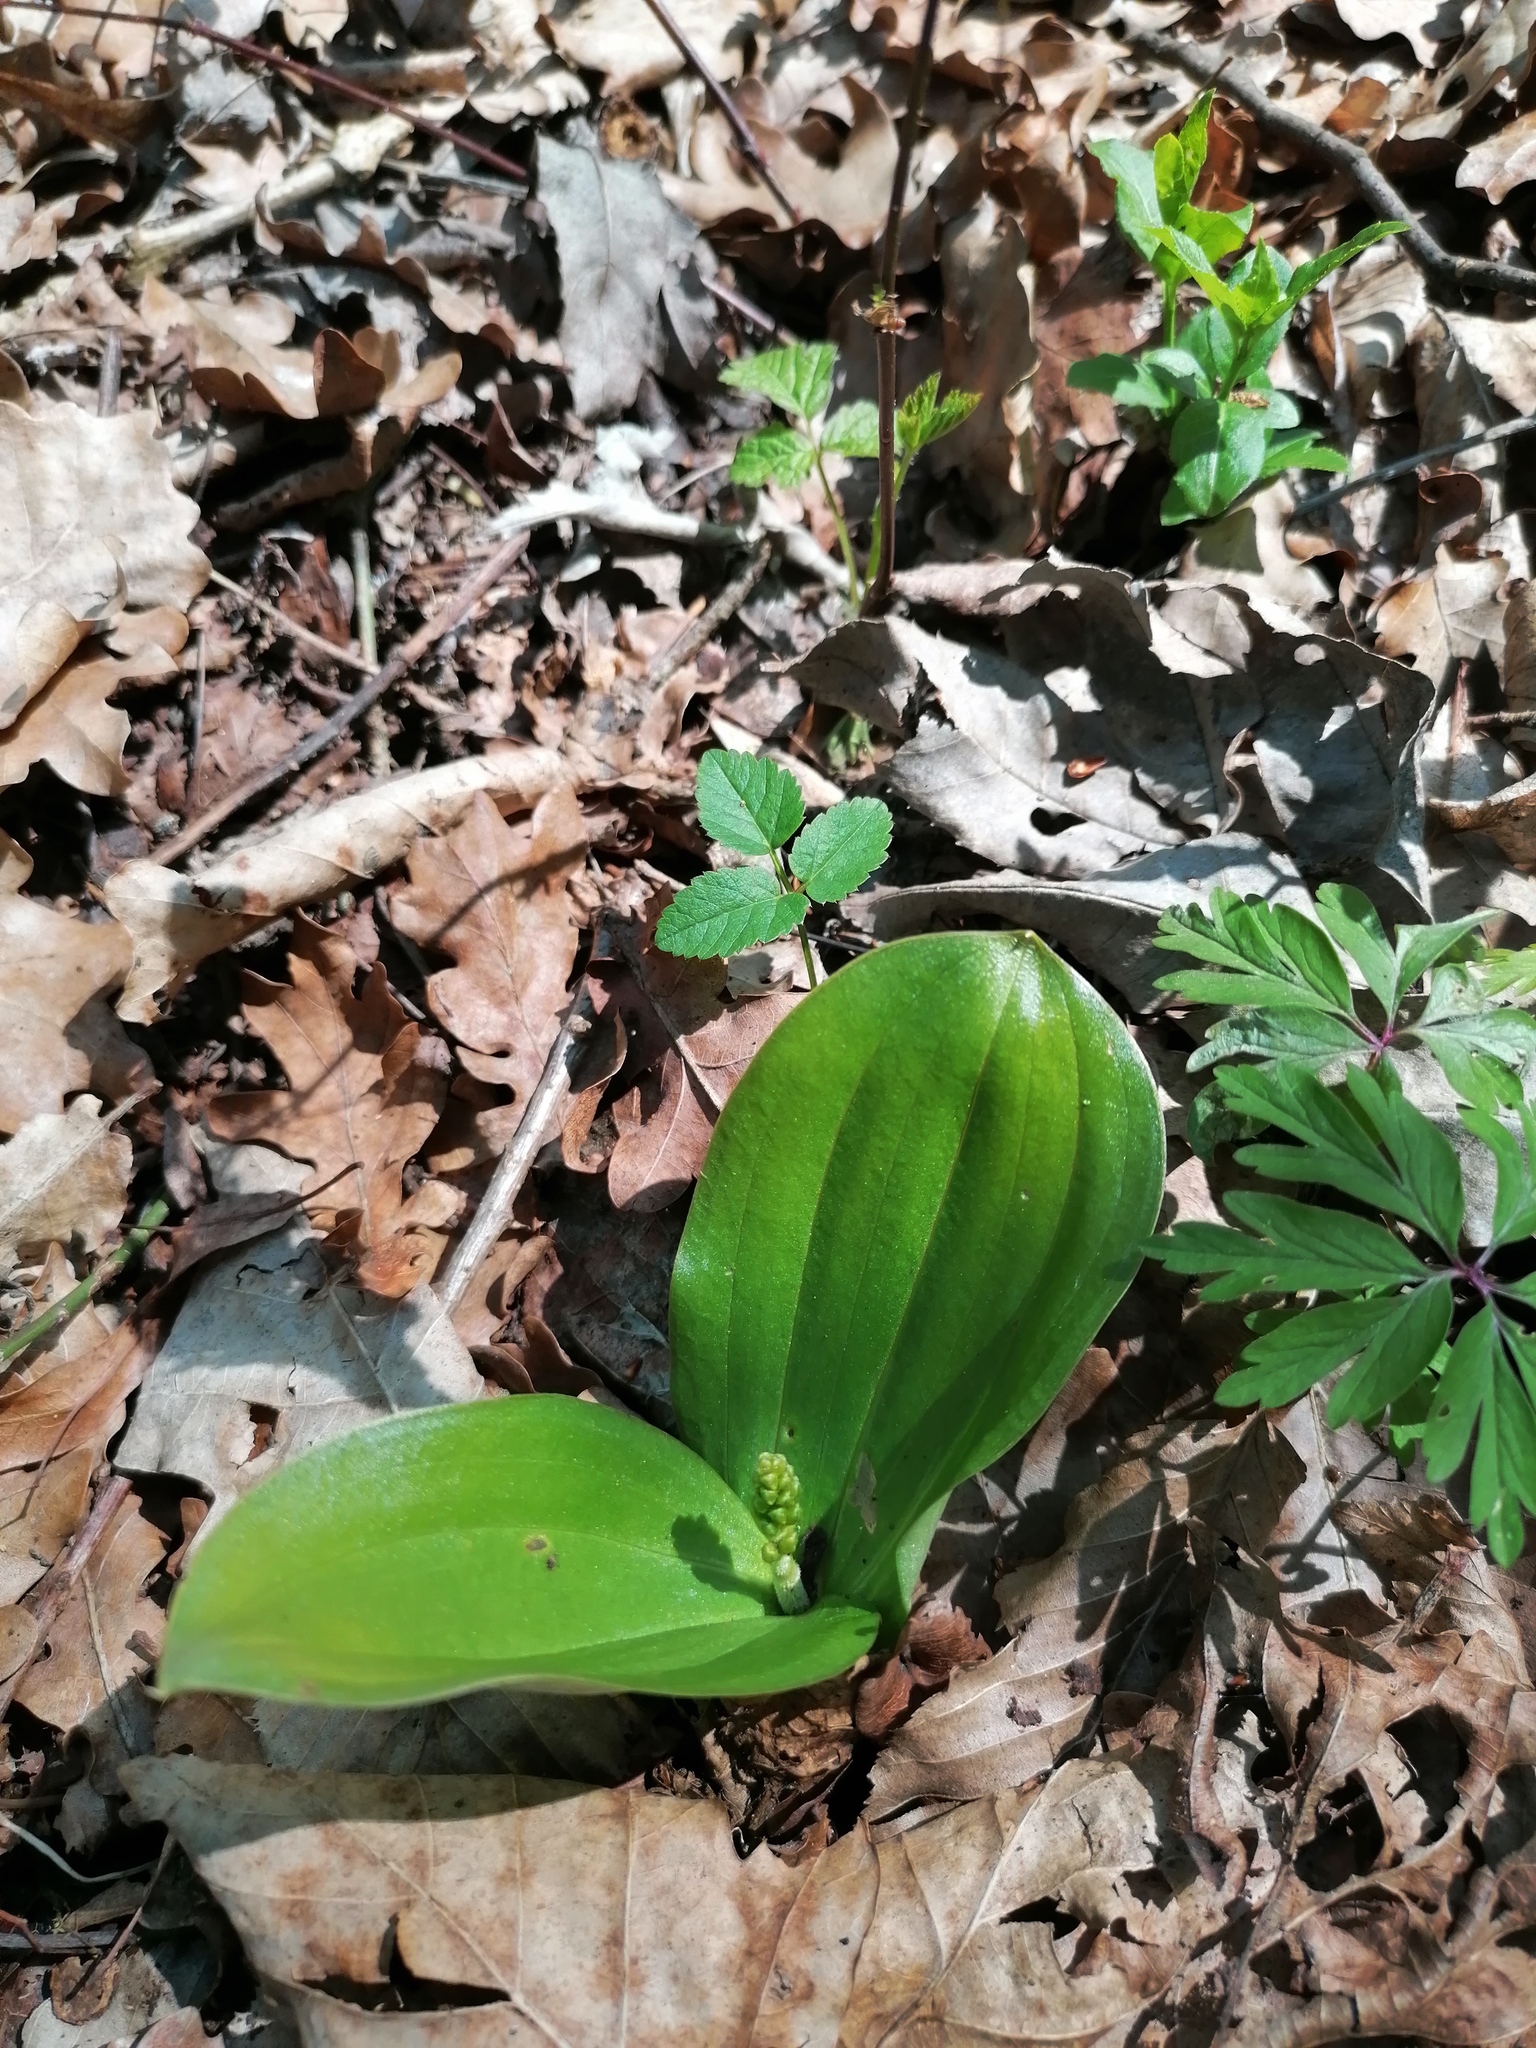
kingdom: Plantae
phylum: Tracheophyta
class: Liliopsida
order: Asparagales
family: Orchidaceae
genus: Neottia
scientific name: Neottia ovata
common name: Common twayblade
